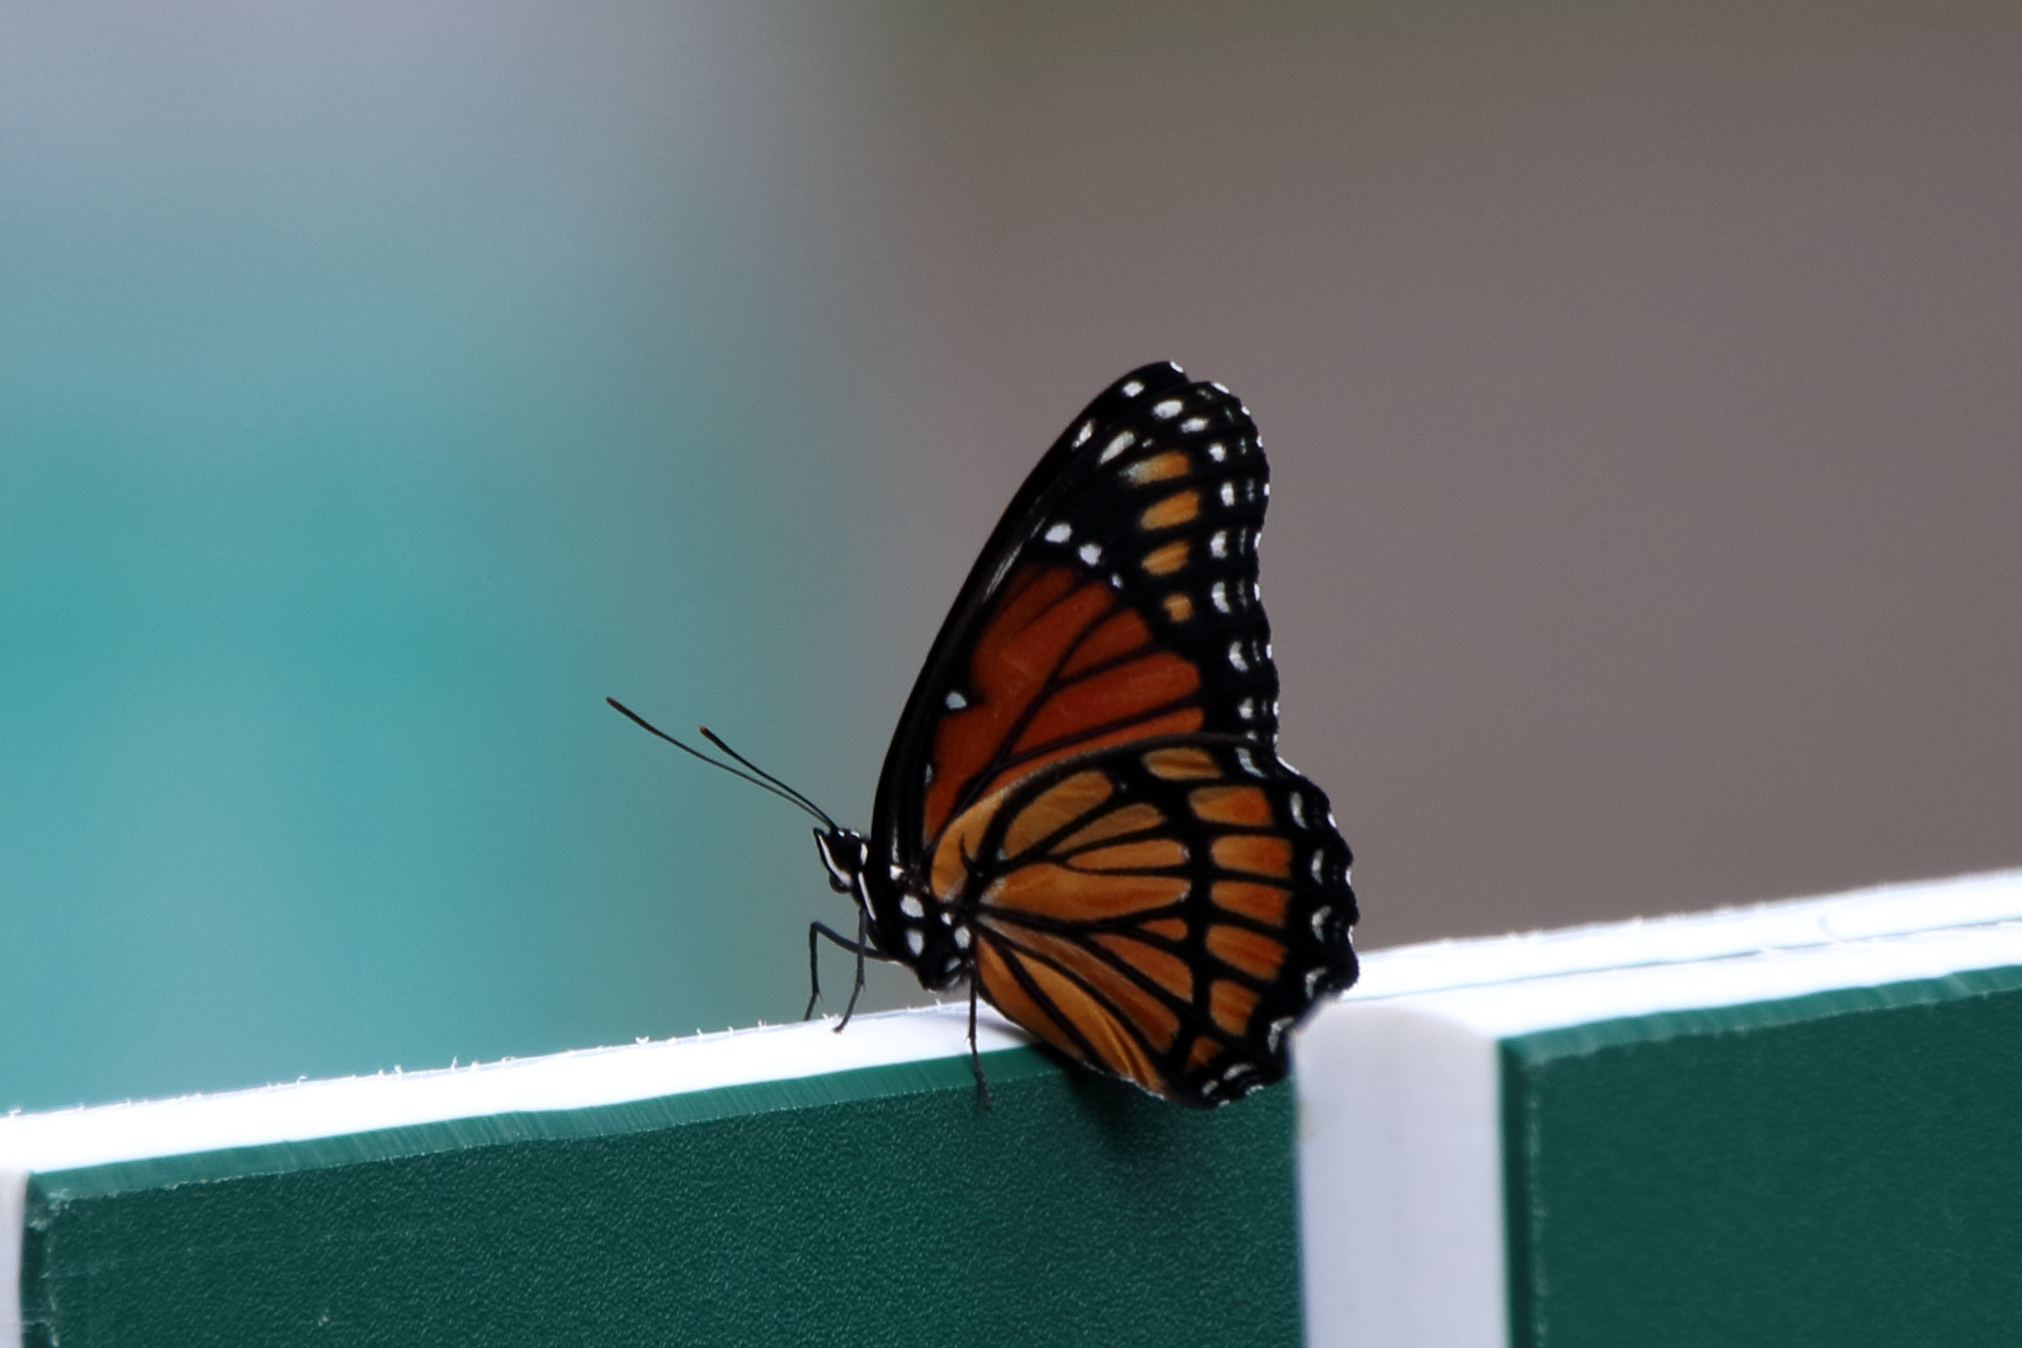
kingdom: Animalia
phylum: Arthropoda
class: Insecta
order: Lepidoptera
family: Nymphalidae
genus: Limenitis
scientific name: Limenitis archippus
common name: Viceroy
